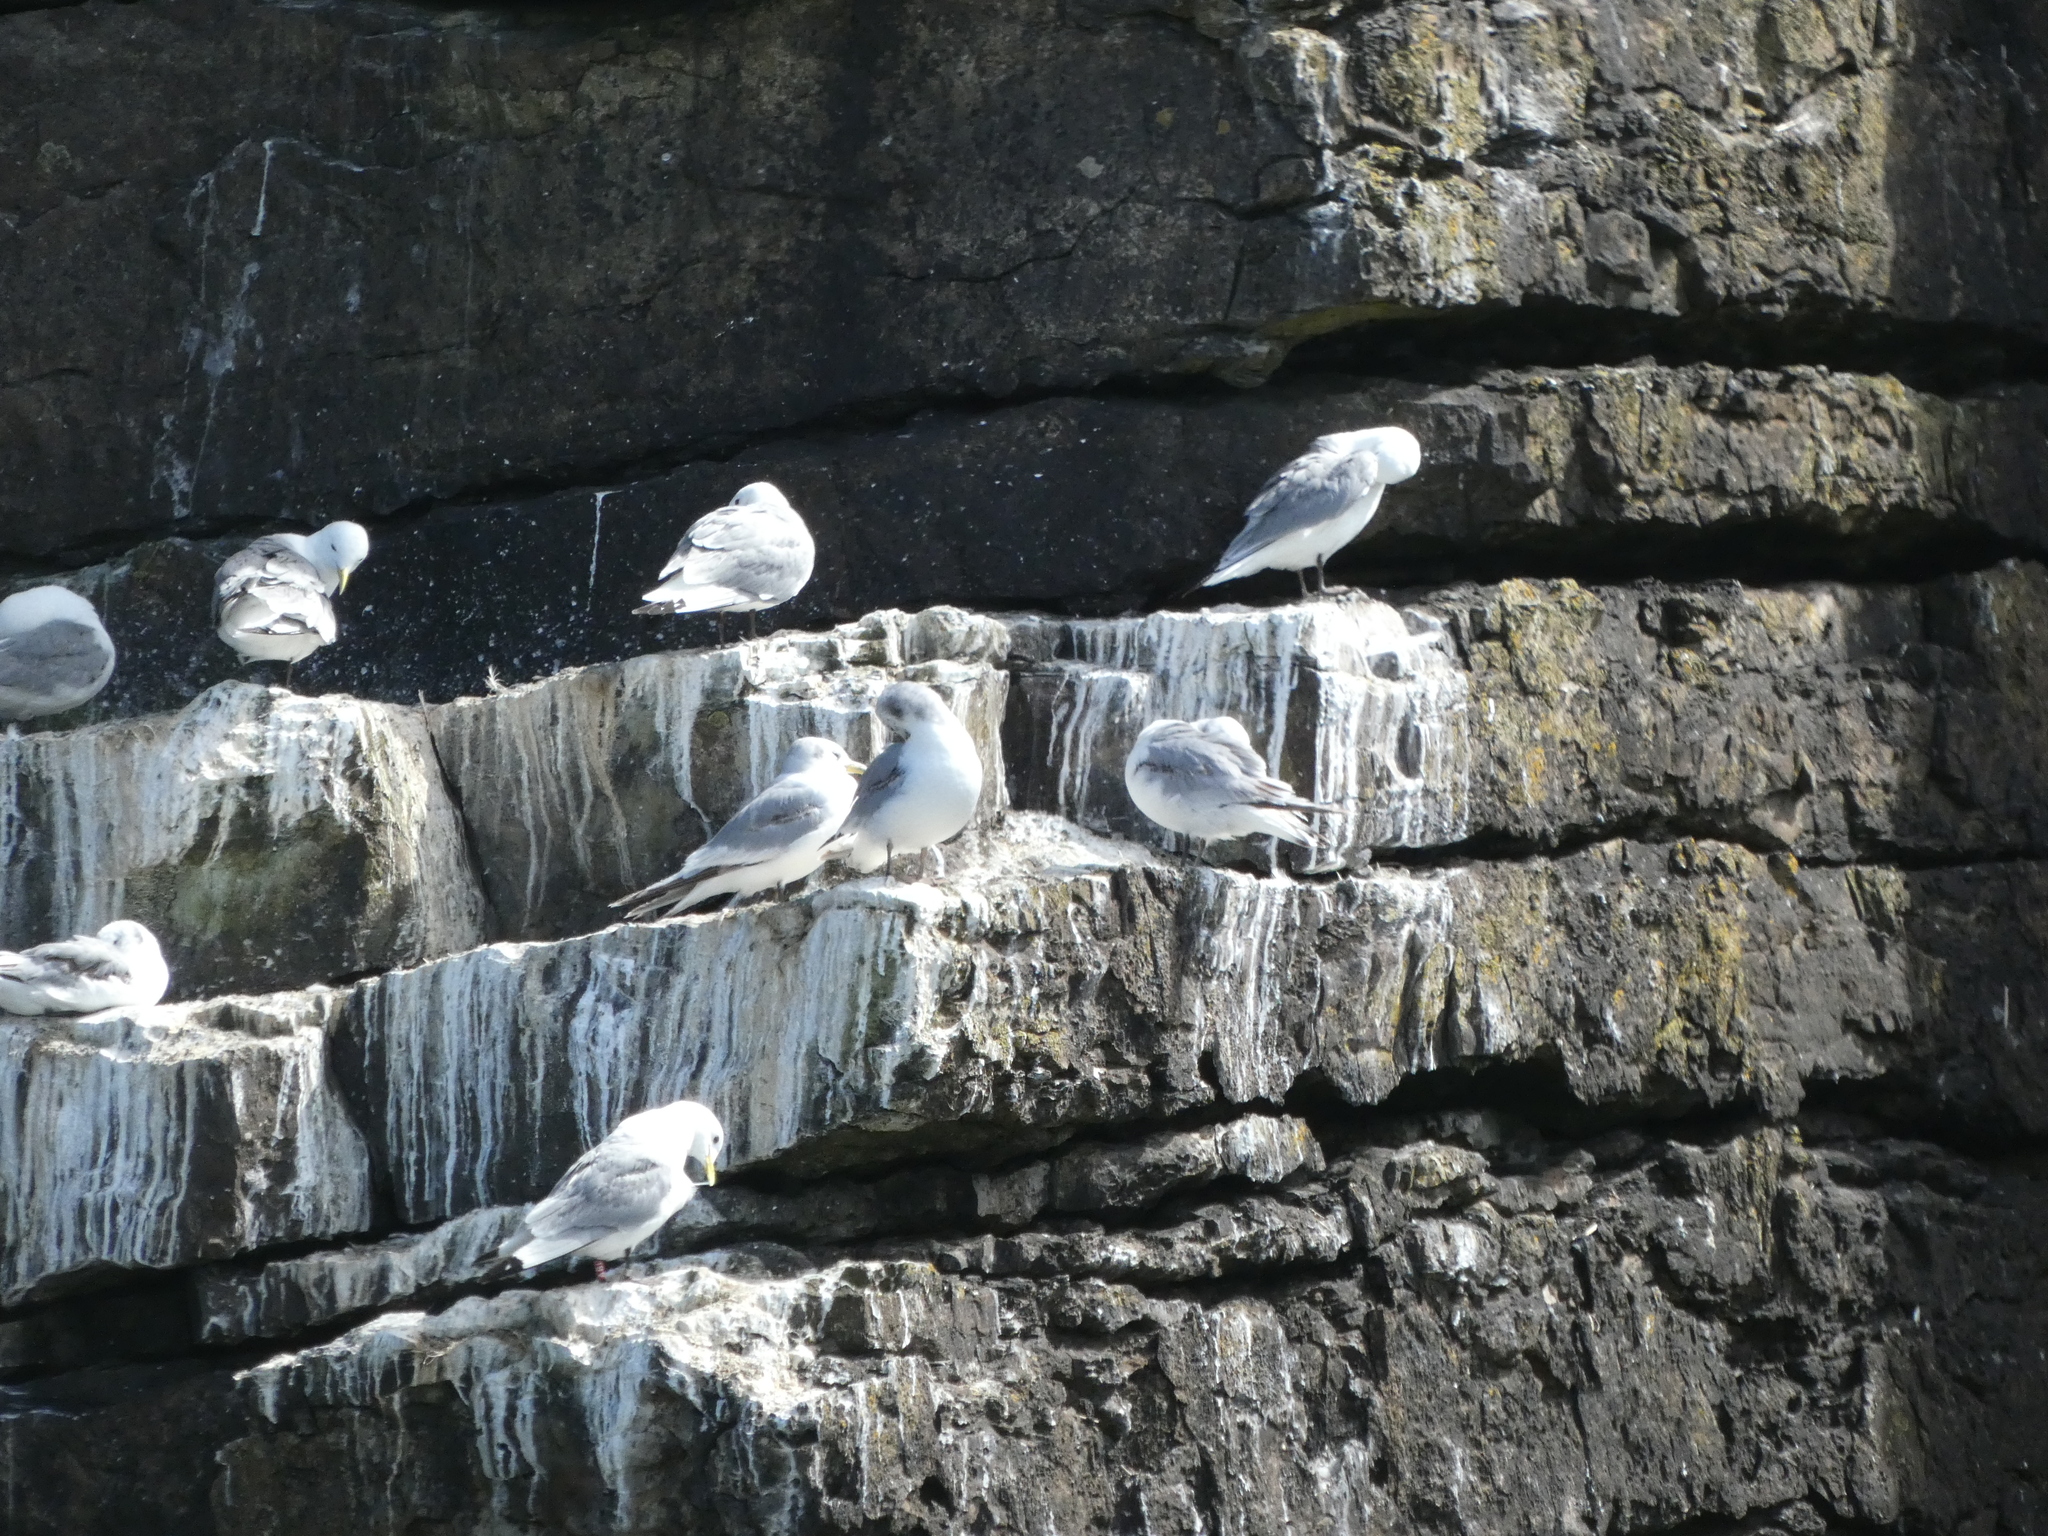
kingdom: Animalia
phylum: Chordata
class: Aves
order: Charadriiformes
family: Laridae
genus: Rissa
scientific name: Rissa tridactyla
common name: Black-legged kittiwake
